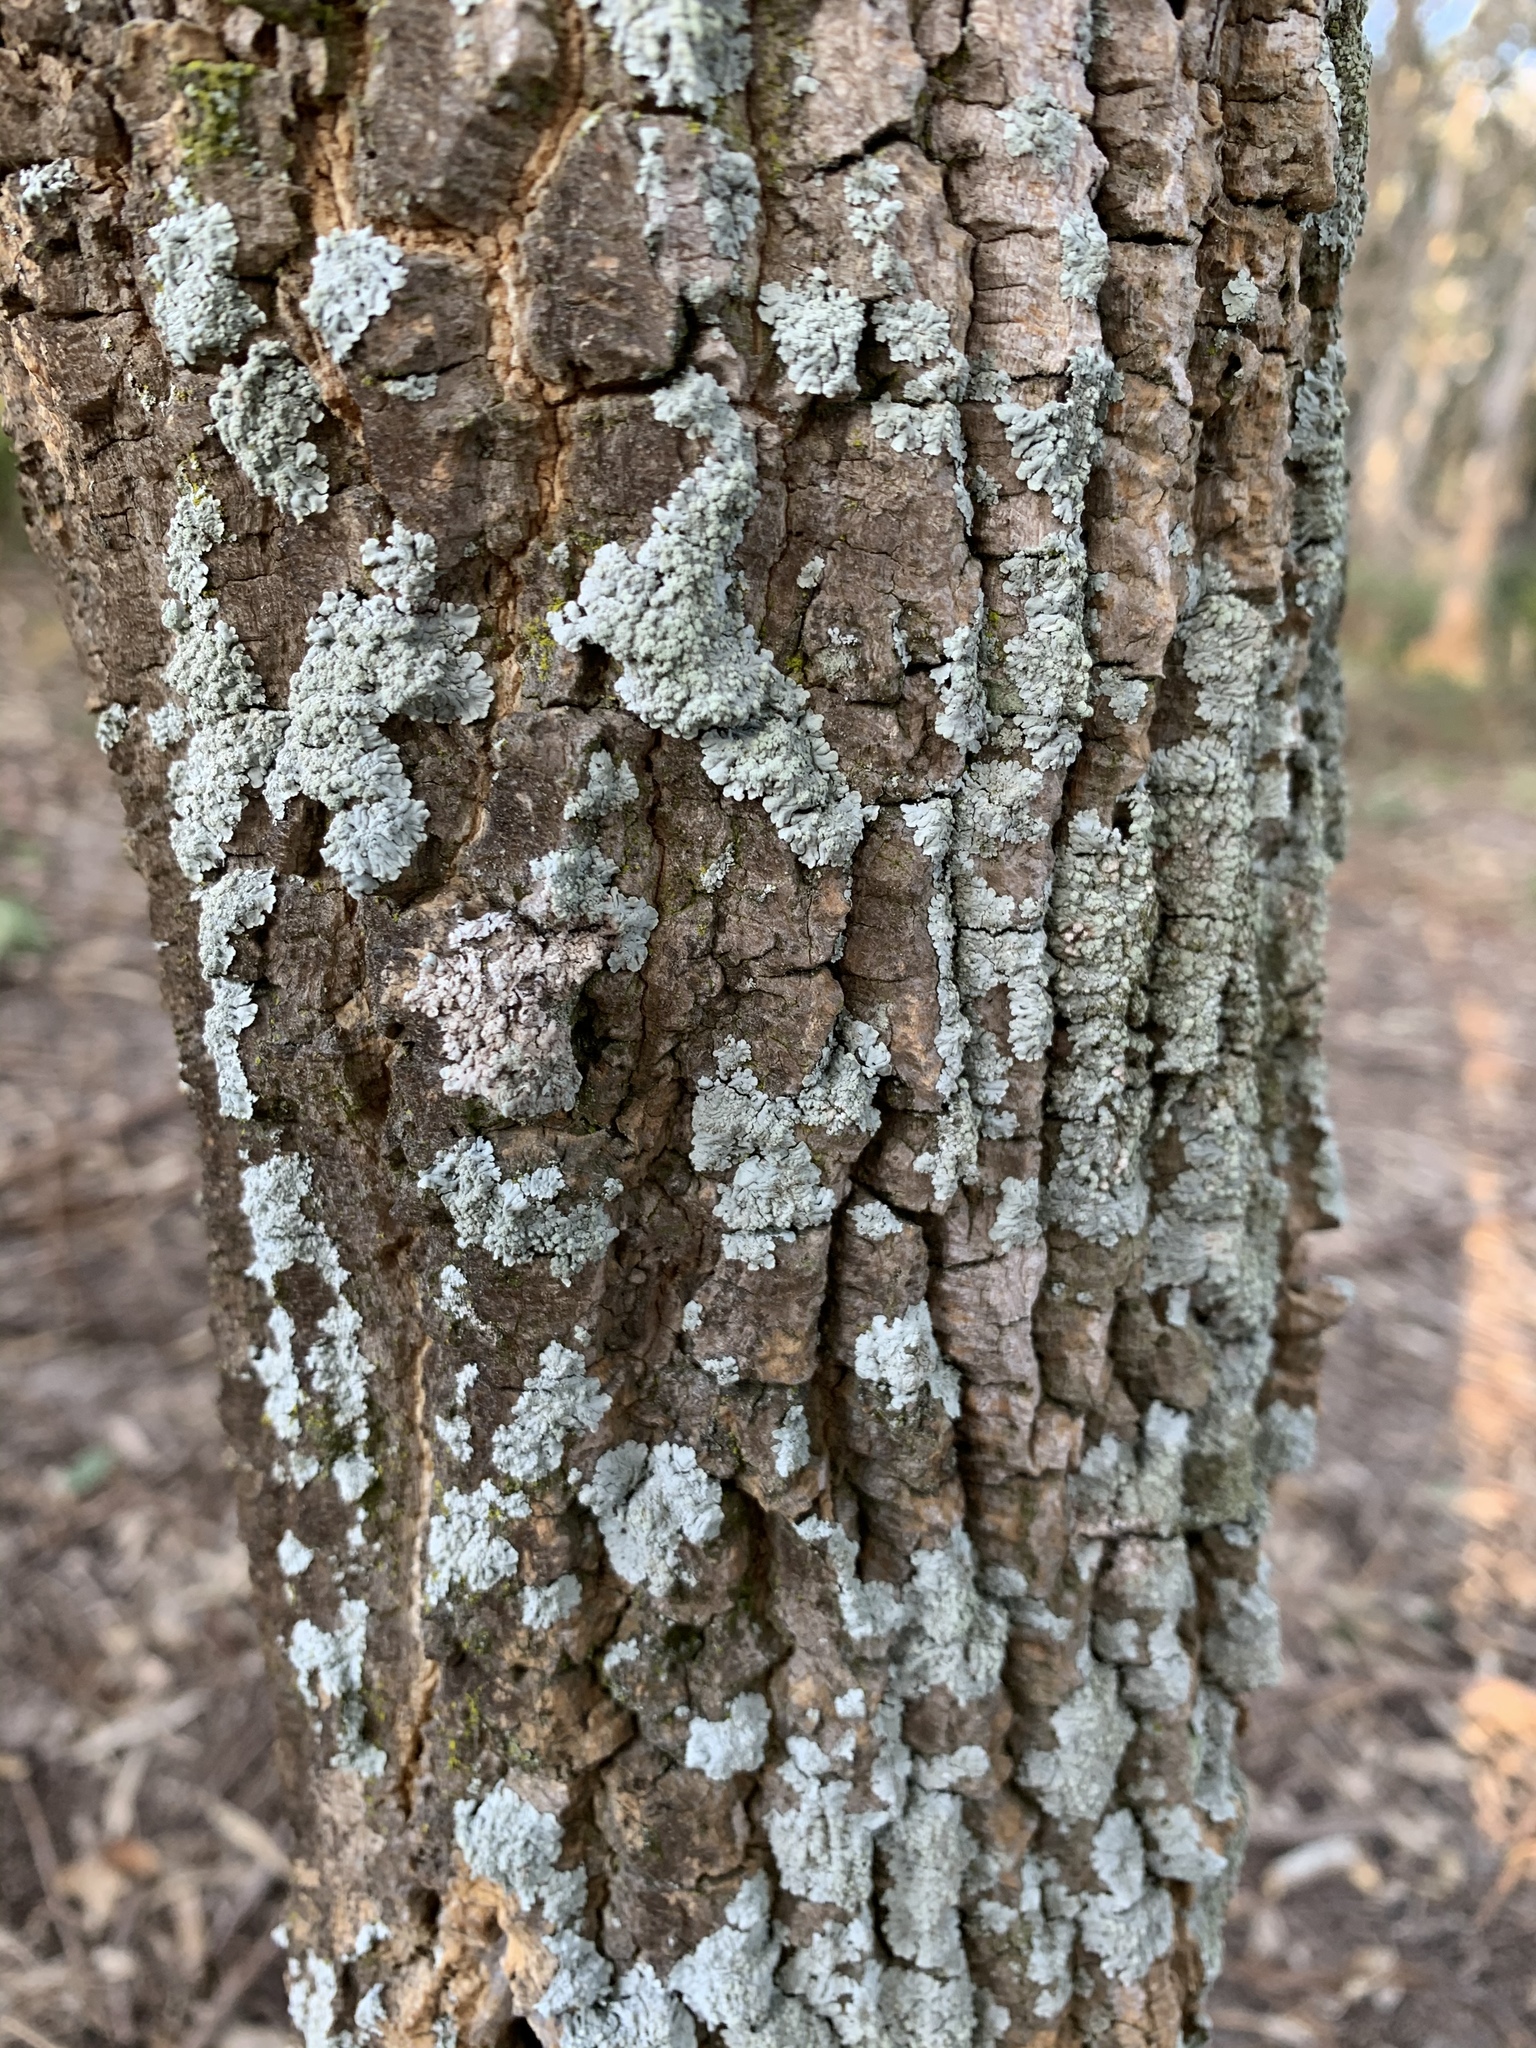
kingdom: Plantae
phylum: Tracheophyta
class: Magnoliopsida
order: Solanales
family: Solanaceae
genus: Duboisia
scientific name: Duboisia myoporoides
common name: Corkwoodtree
